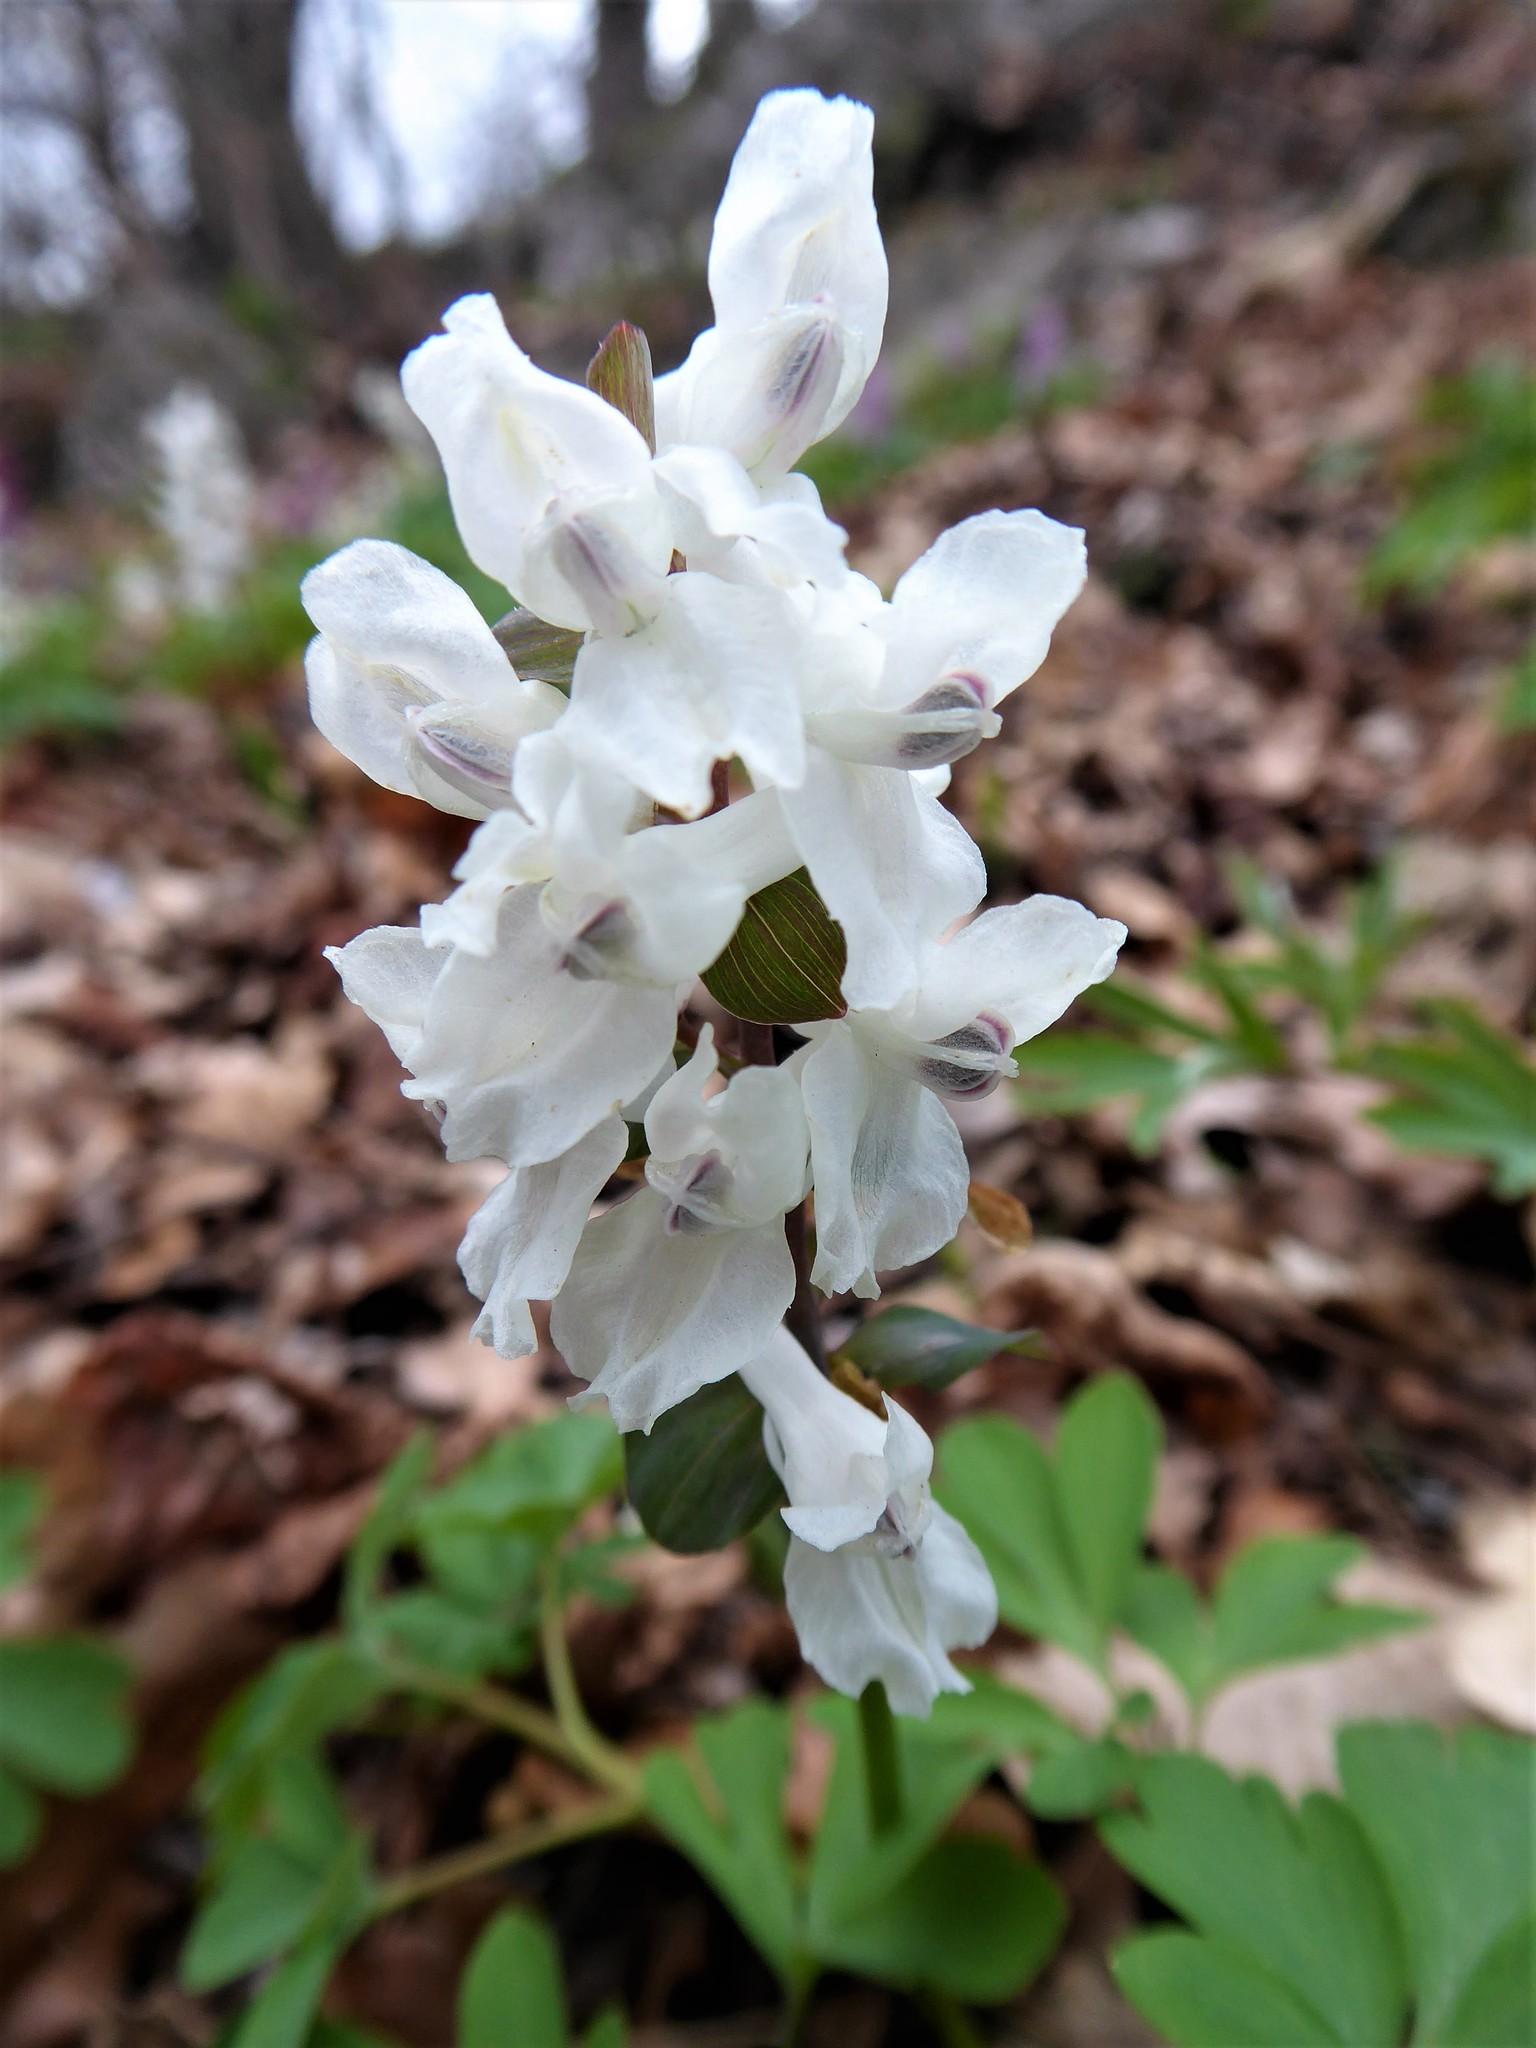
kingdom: Plantae
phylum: Tracheophyta
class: Magnoliopsida
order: Ranunculales
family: Papaveraceae
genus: Corydalis
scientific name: Corydalis cava
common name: Hollowroot
